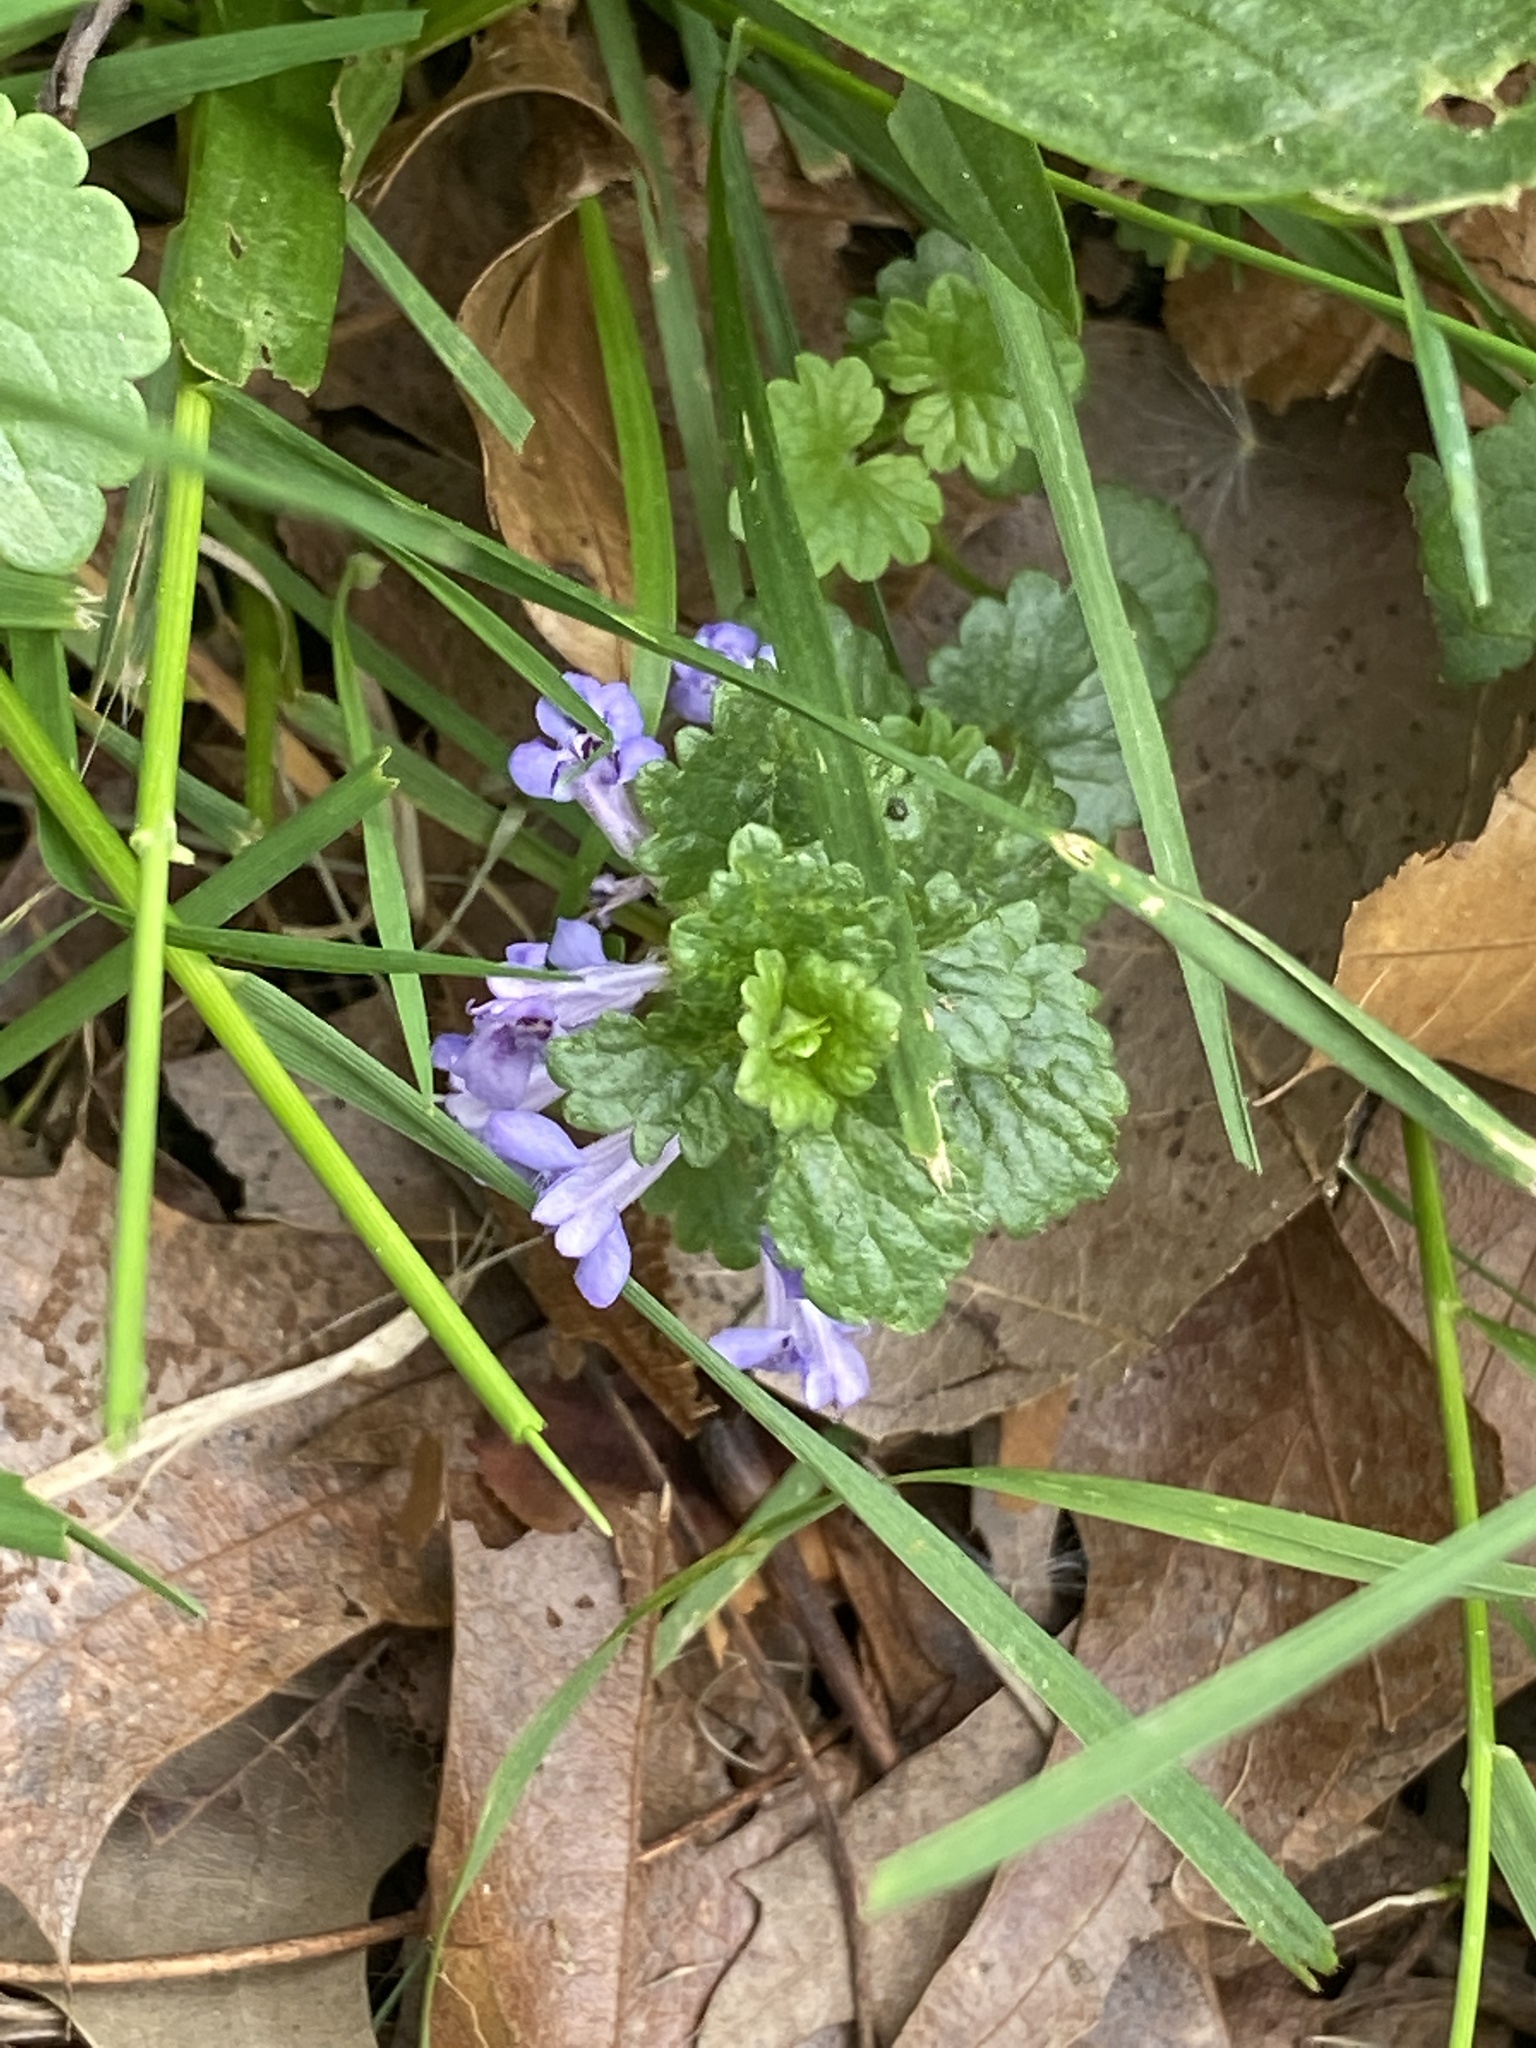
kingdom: Plantae
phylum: Tracheophyta
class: Magnoliopsida
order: Lamiales
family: Lamiaceae
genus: Glechoma
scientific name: Glechoma hederacea
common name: Ground ivy
